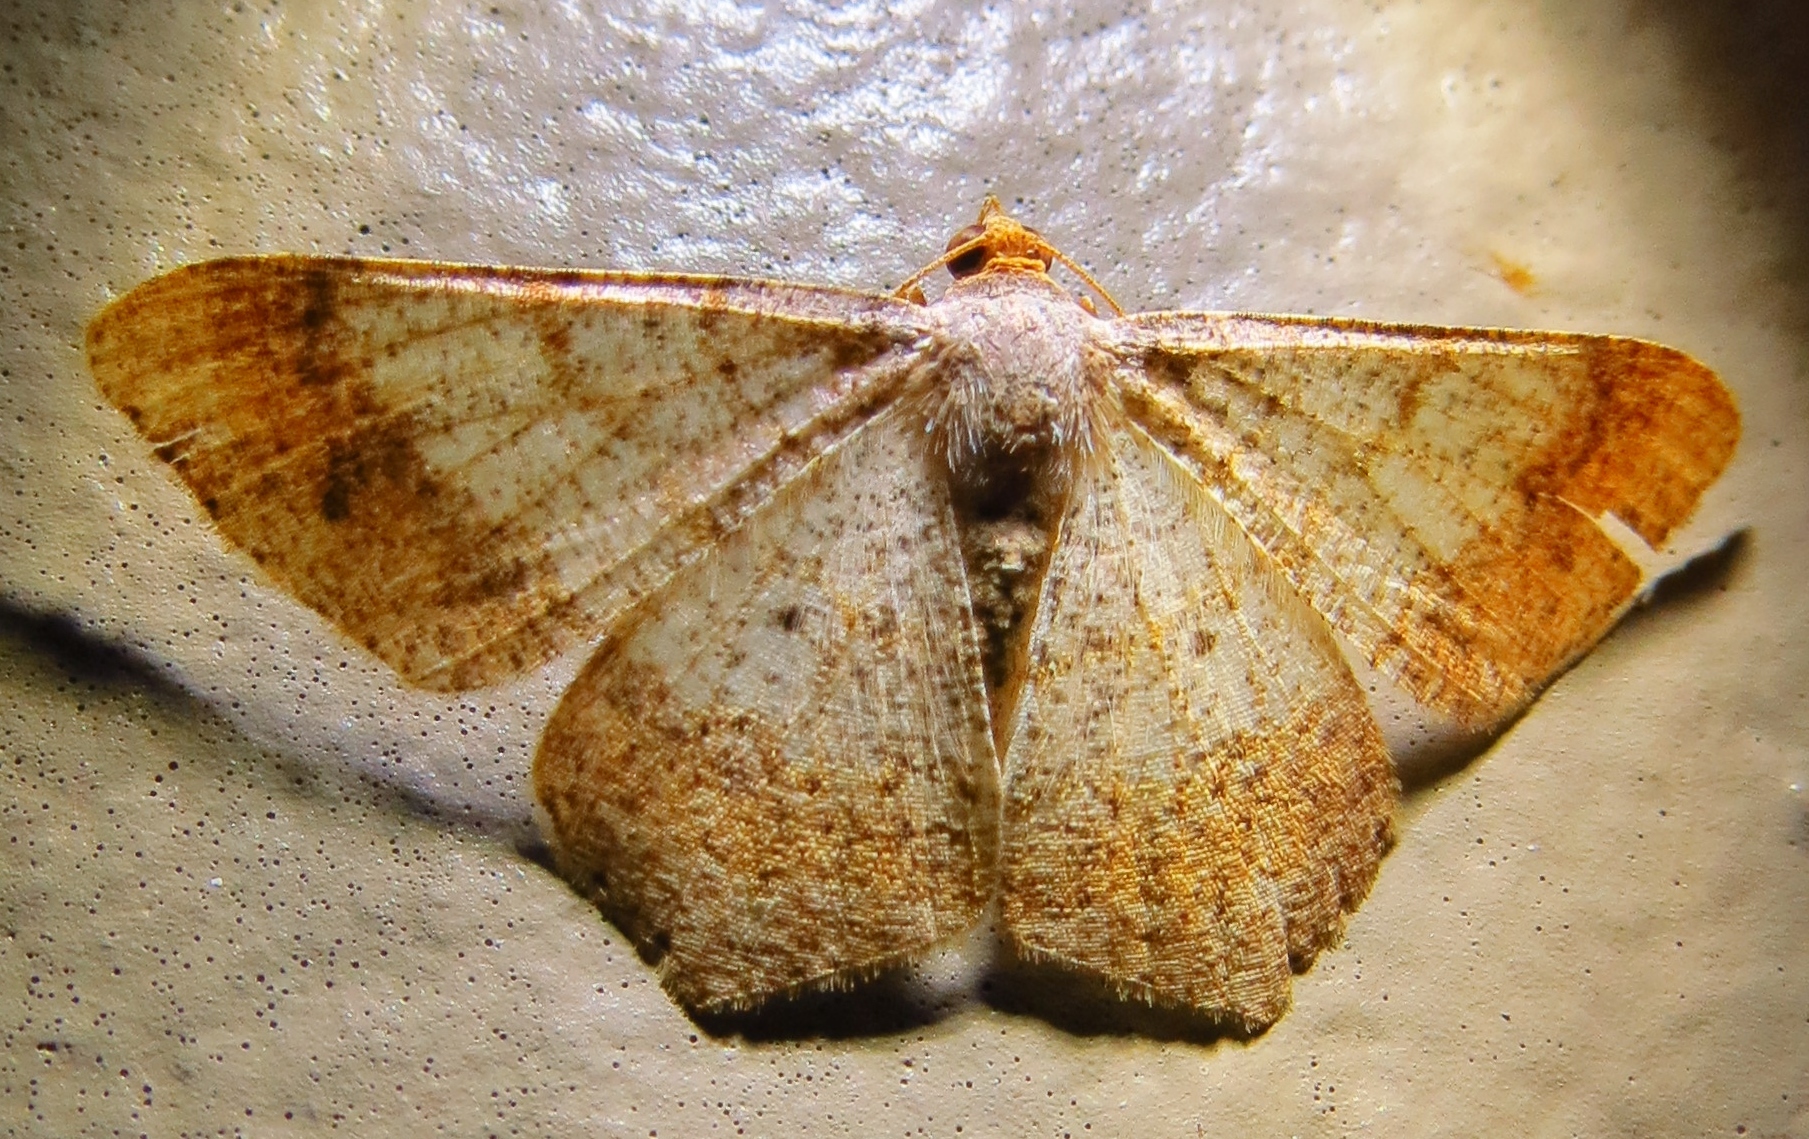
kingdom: Animalia
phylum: Arthropoda
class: Insecta
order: Lepidoptera
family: Geometridae
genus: Macaria
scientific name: Macaria abydata
